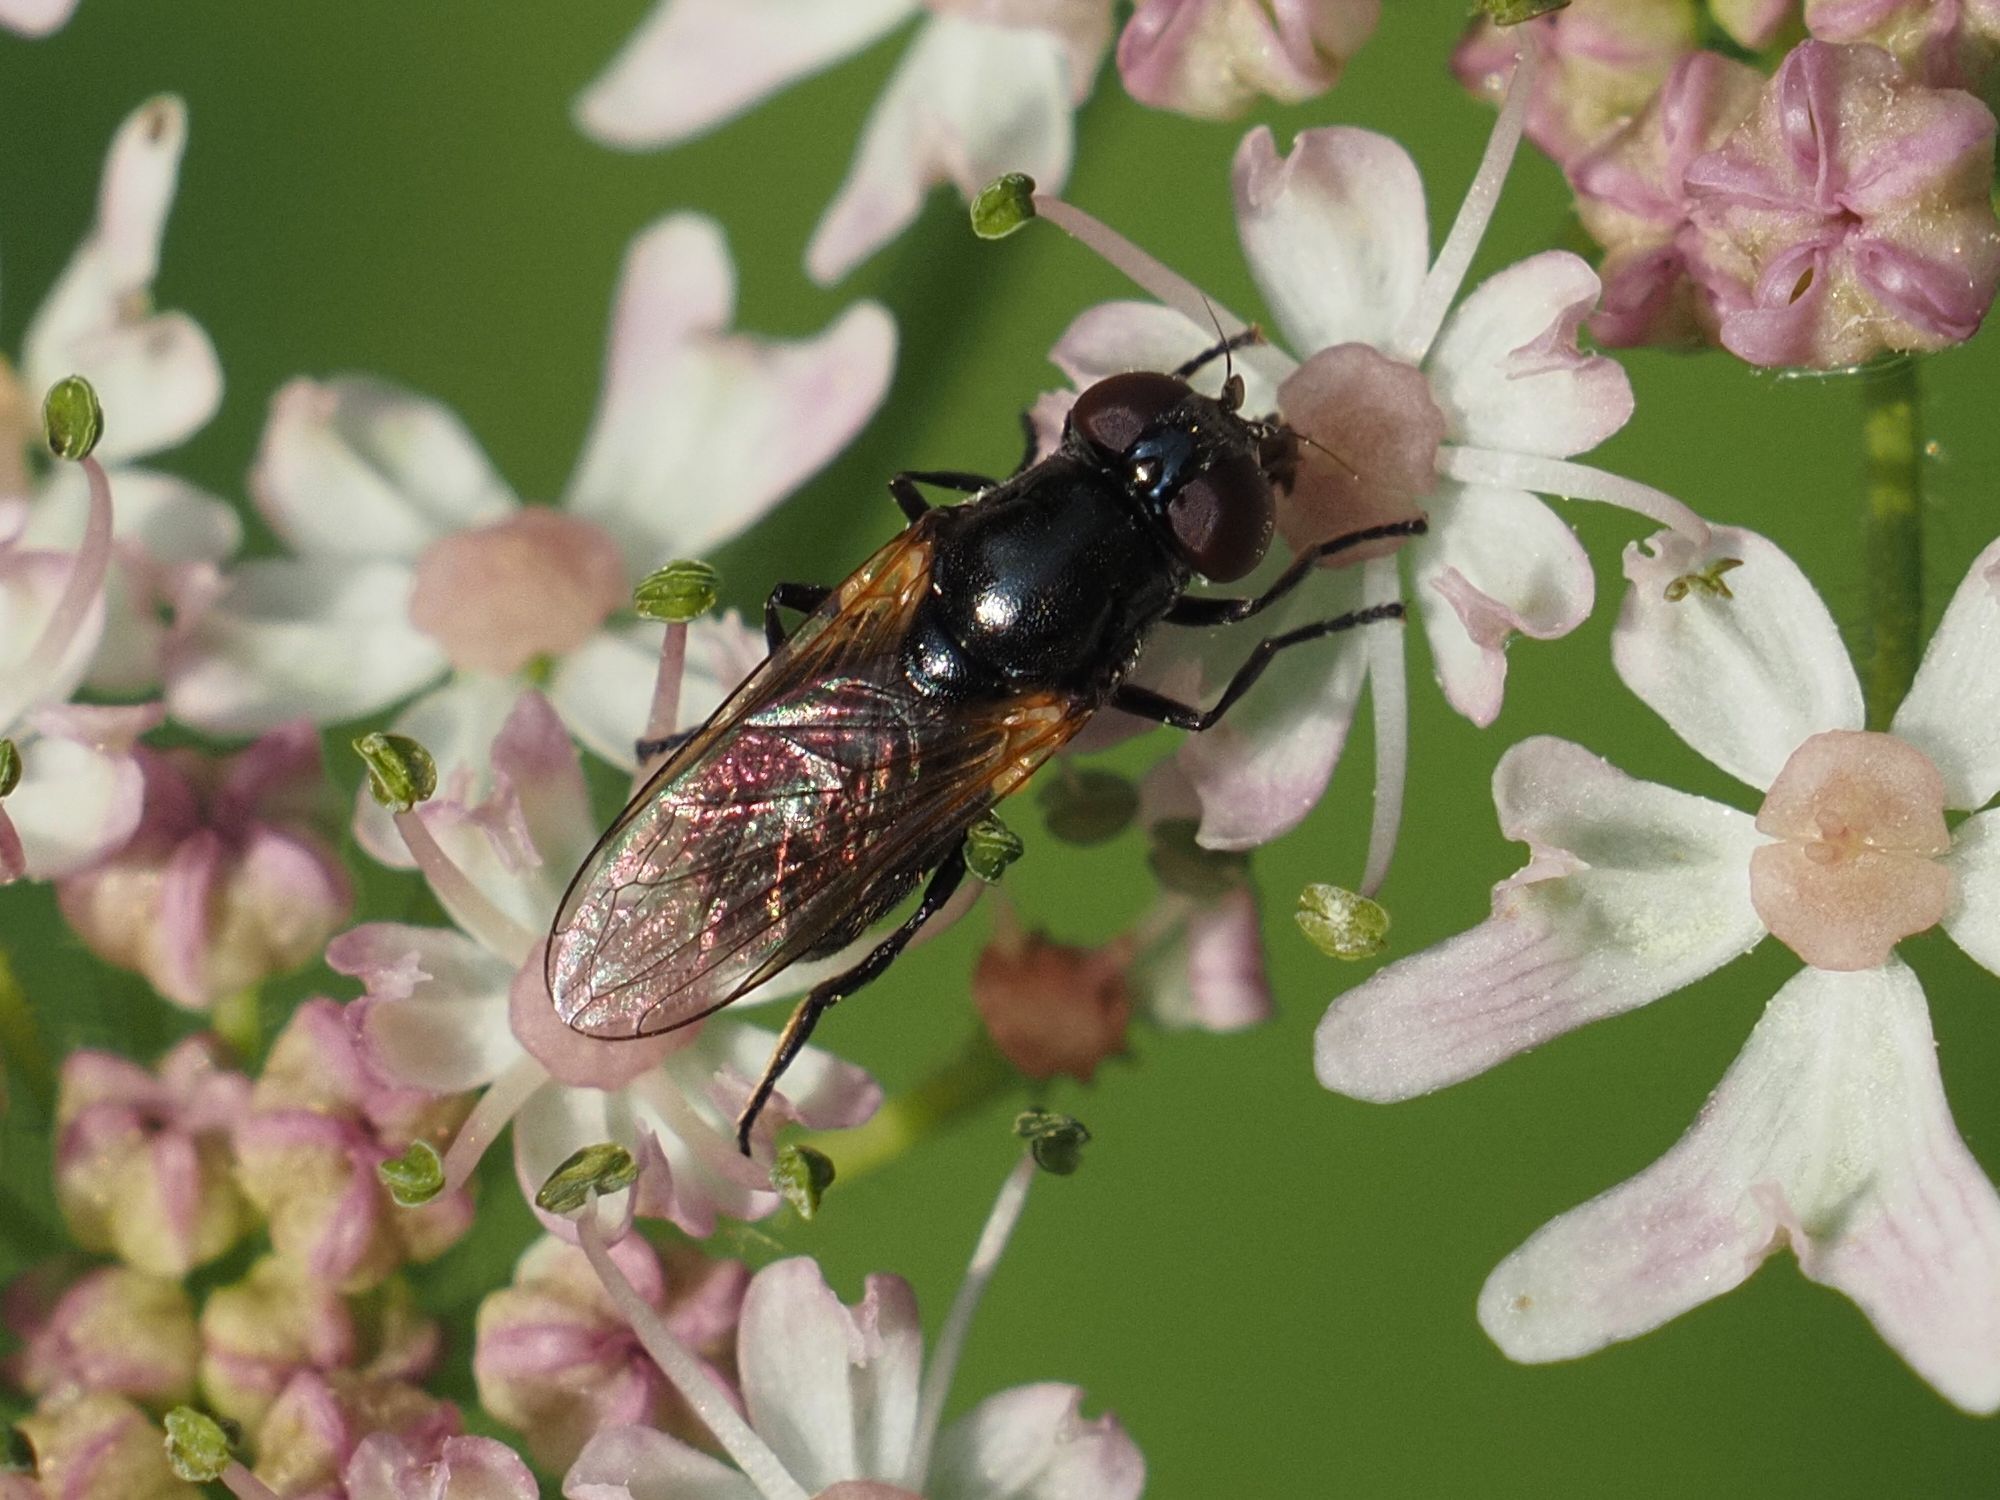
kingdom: Animalia
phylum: Arthropoda
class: Insecta
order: Diptera
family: Syrphidae
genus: Cheilosia
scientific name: Cheilosia impressa
